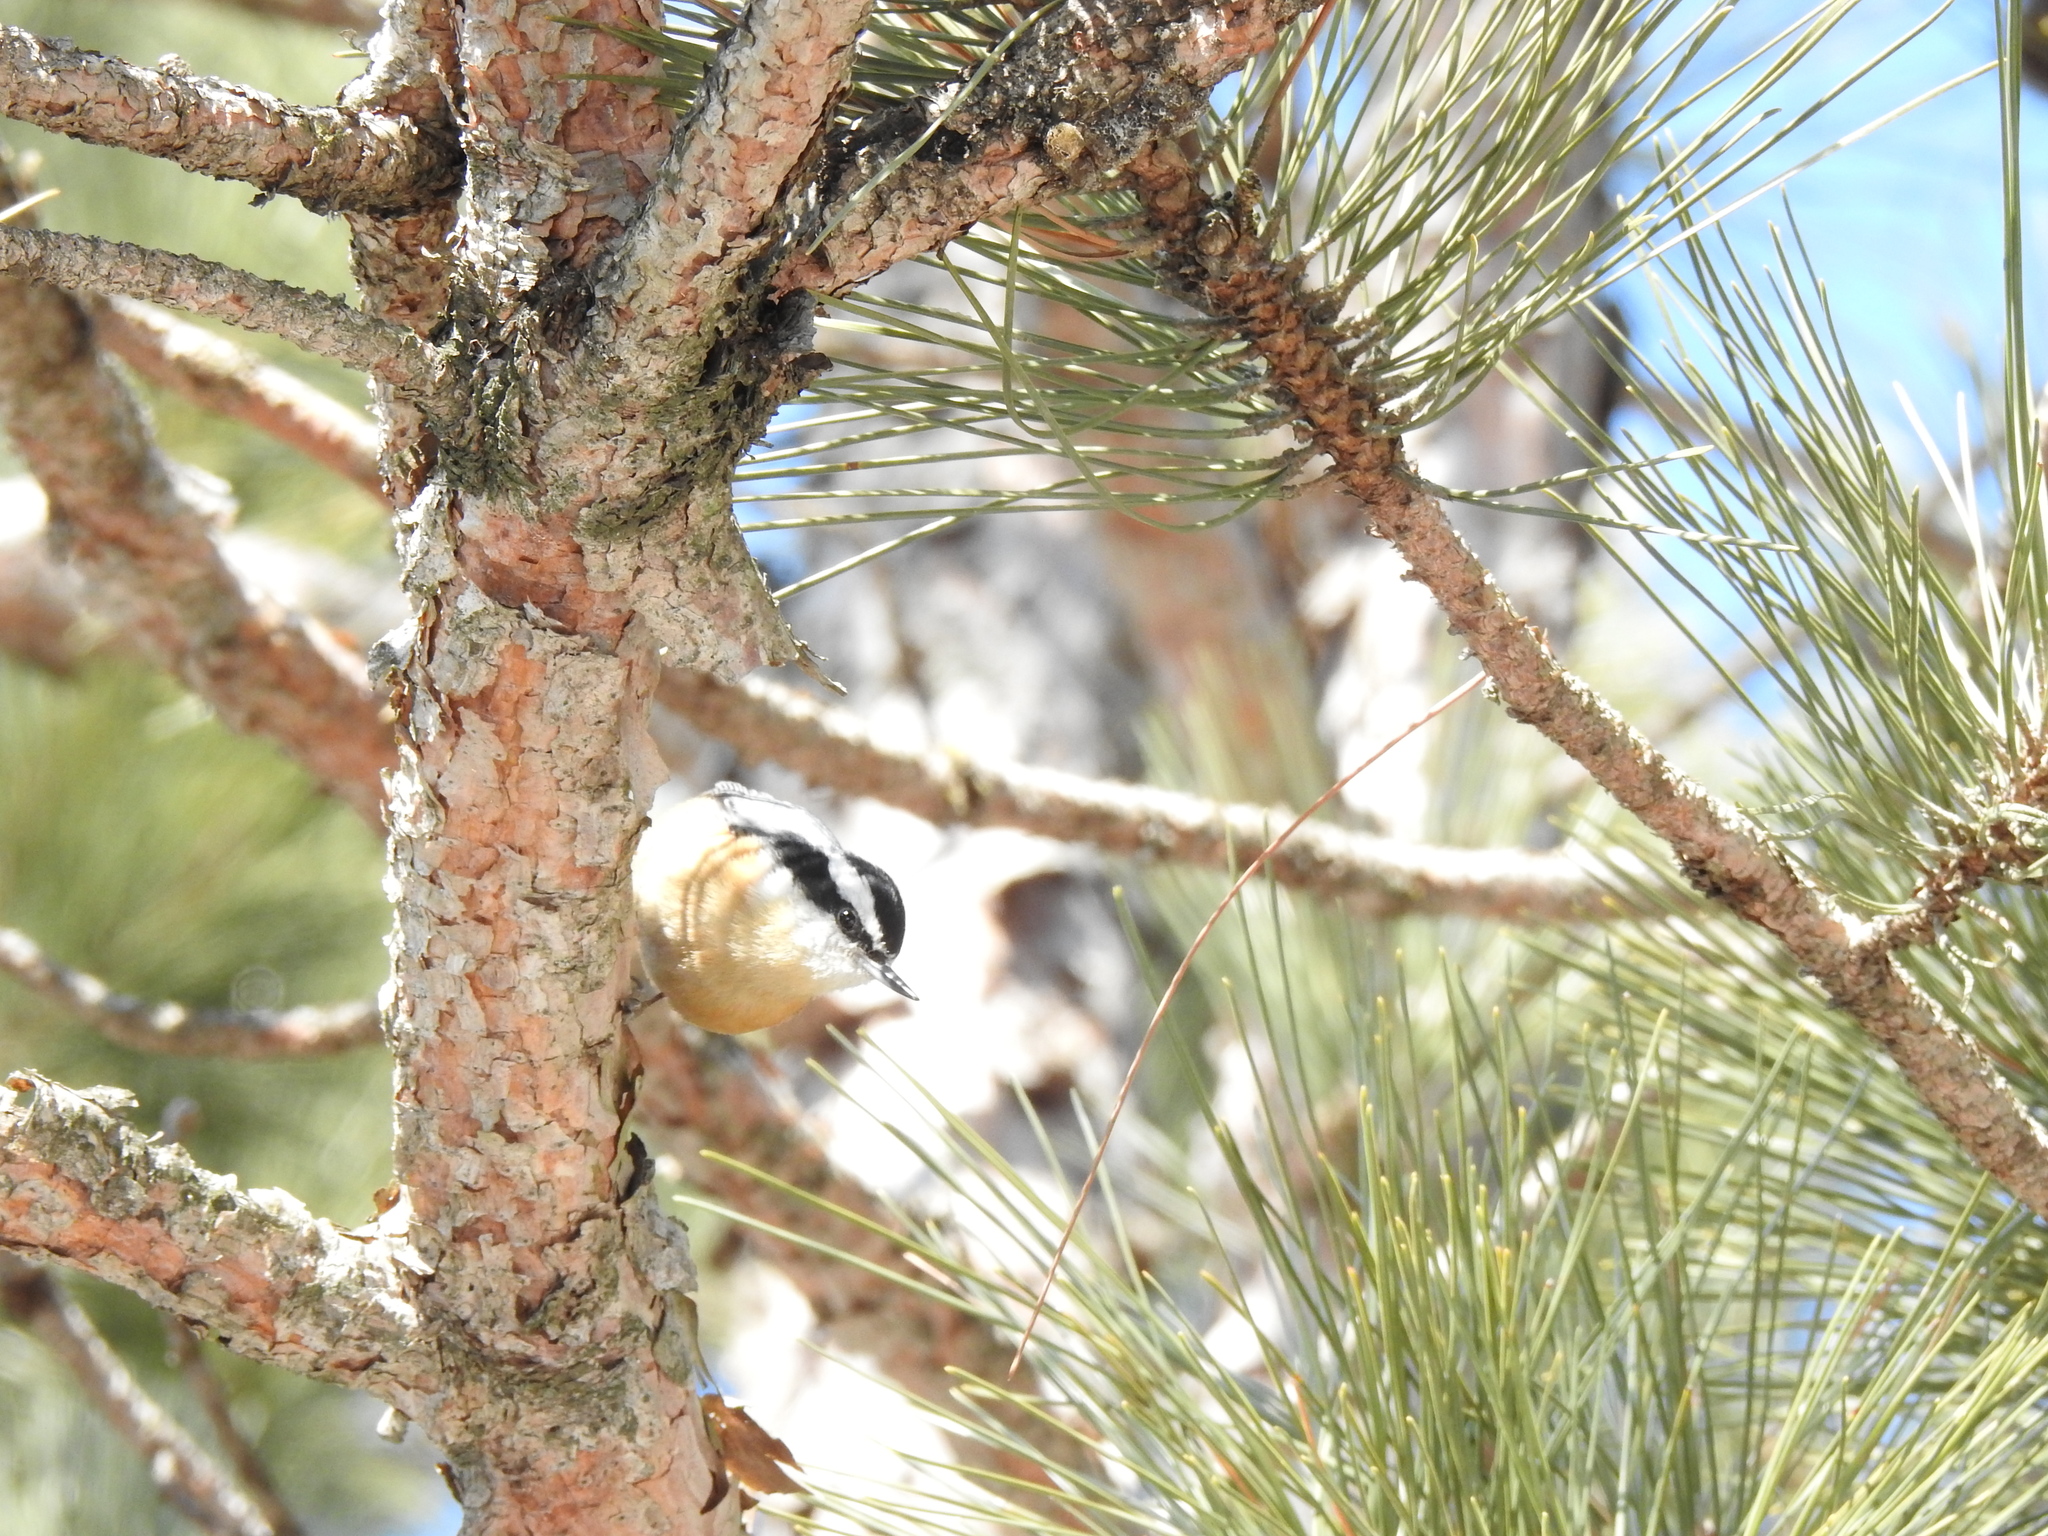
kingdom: Animalia
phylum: Chordata
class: Aves
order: Passeriformes
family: Sittidae
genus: Sitta
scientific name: Sitta canadensis
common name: Red-breasted nuthatch
